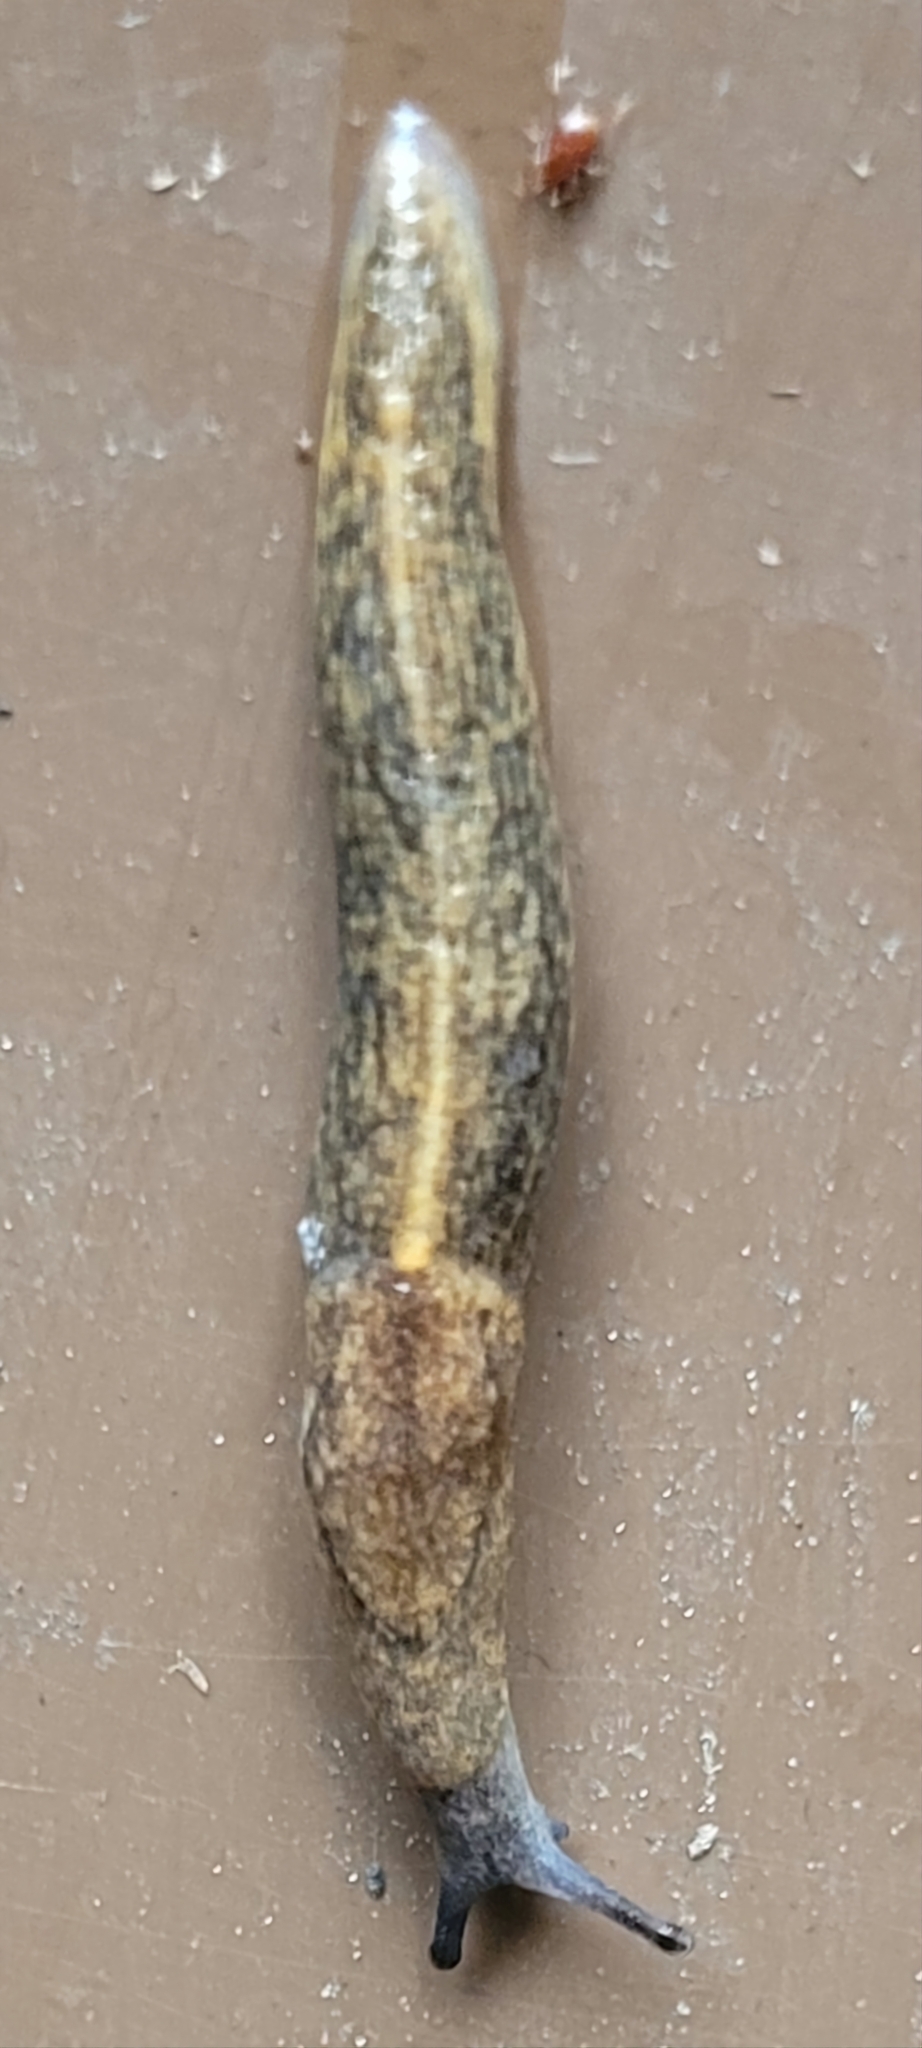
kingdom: Animalia
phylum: Mollusca
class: Gastropoda
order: Stylommatophora
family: Milacidae
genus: Tandonia
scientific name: Tandonia budapestensis
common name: Budapest slug
